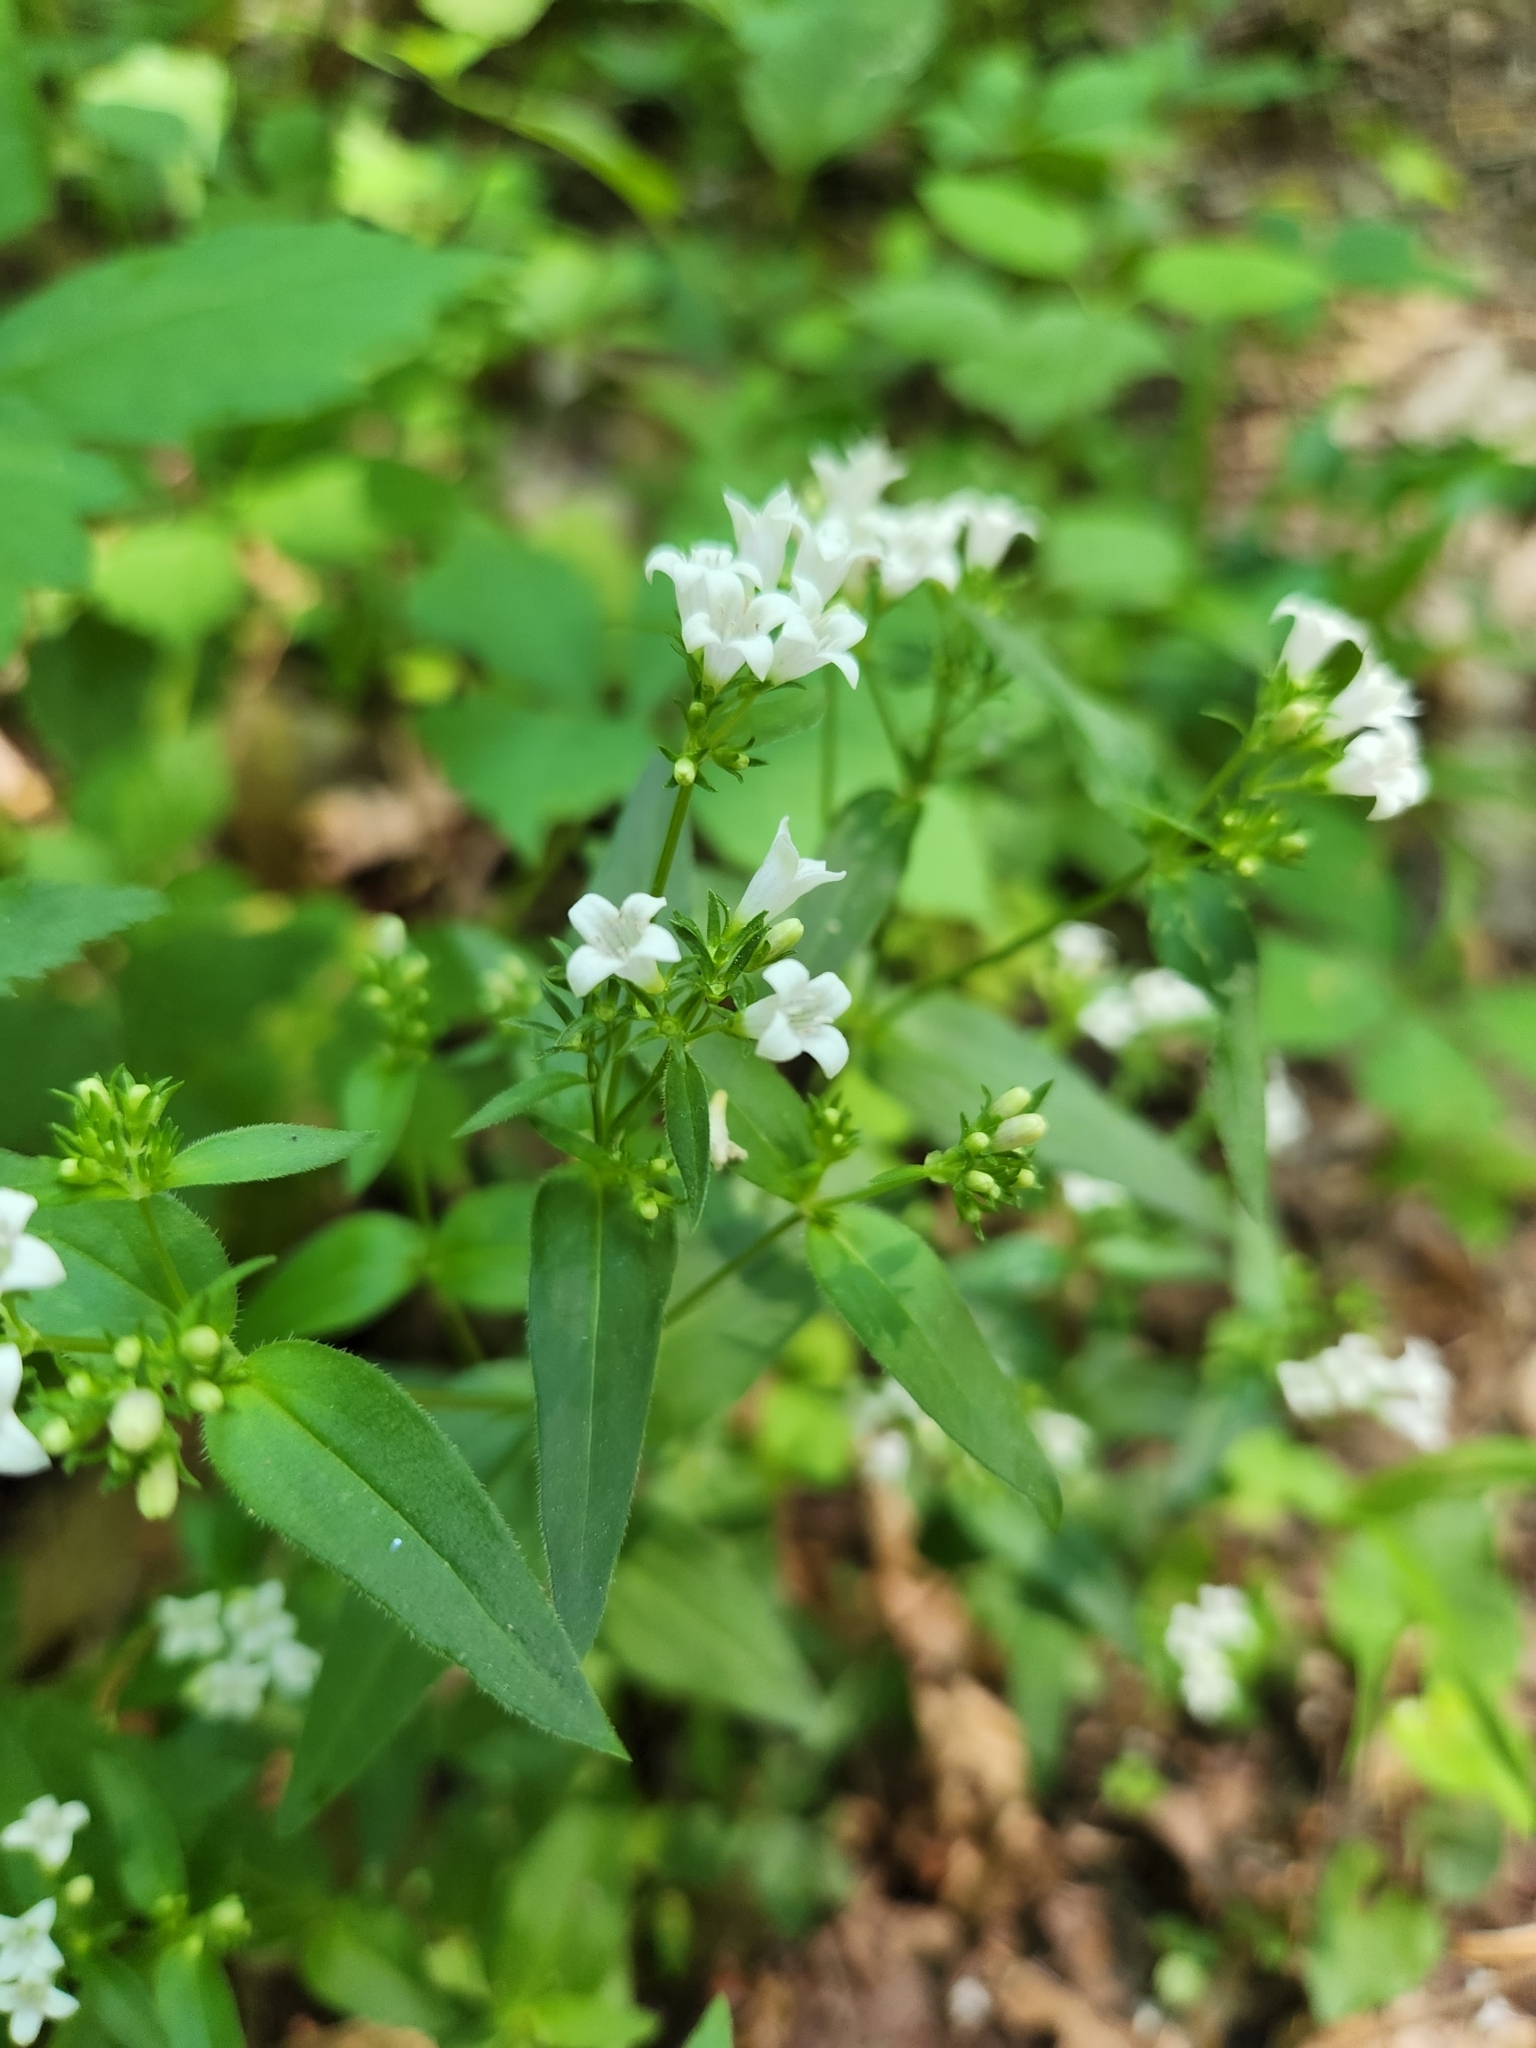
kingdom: Plantae
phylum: Tracheophyta
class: Magnoliopsida
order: Gentianales
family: Rubiaceae
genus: Houstonia
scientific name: Houstonia purpurea
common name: Summer bluet
